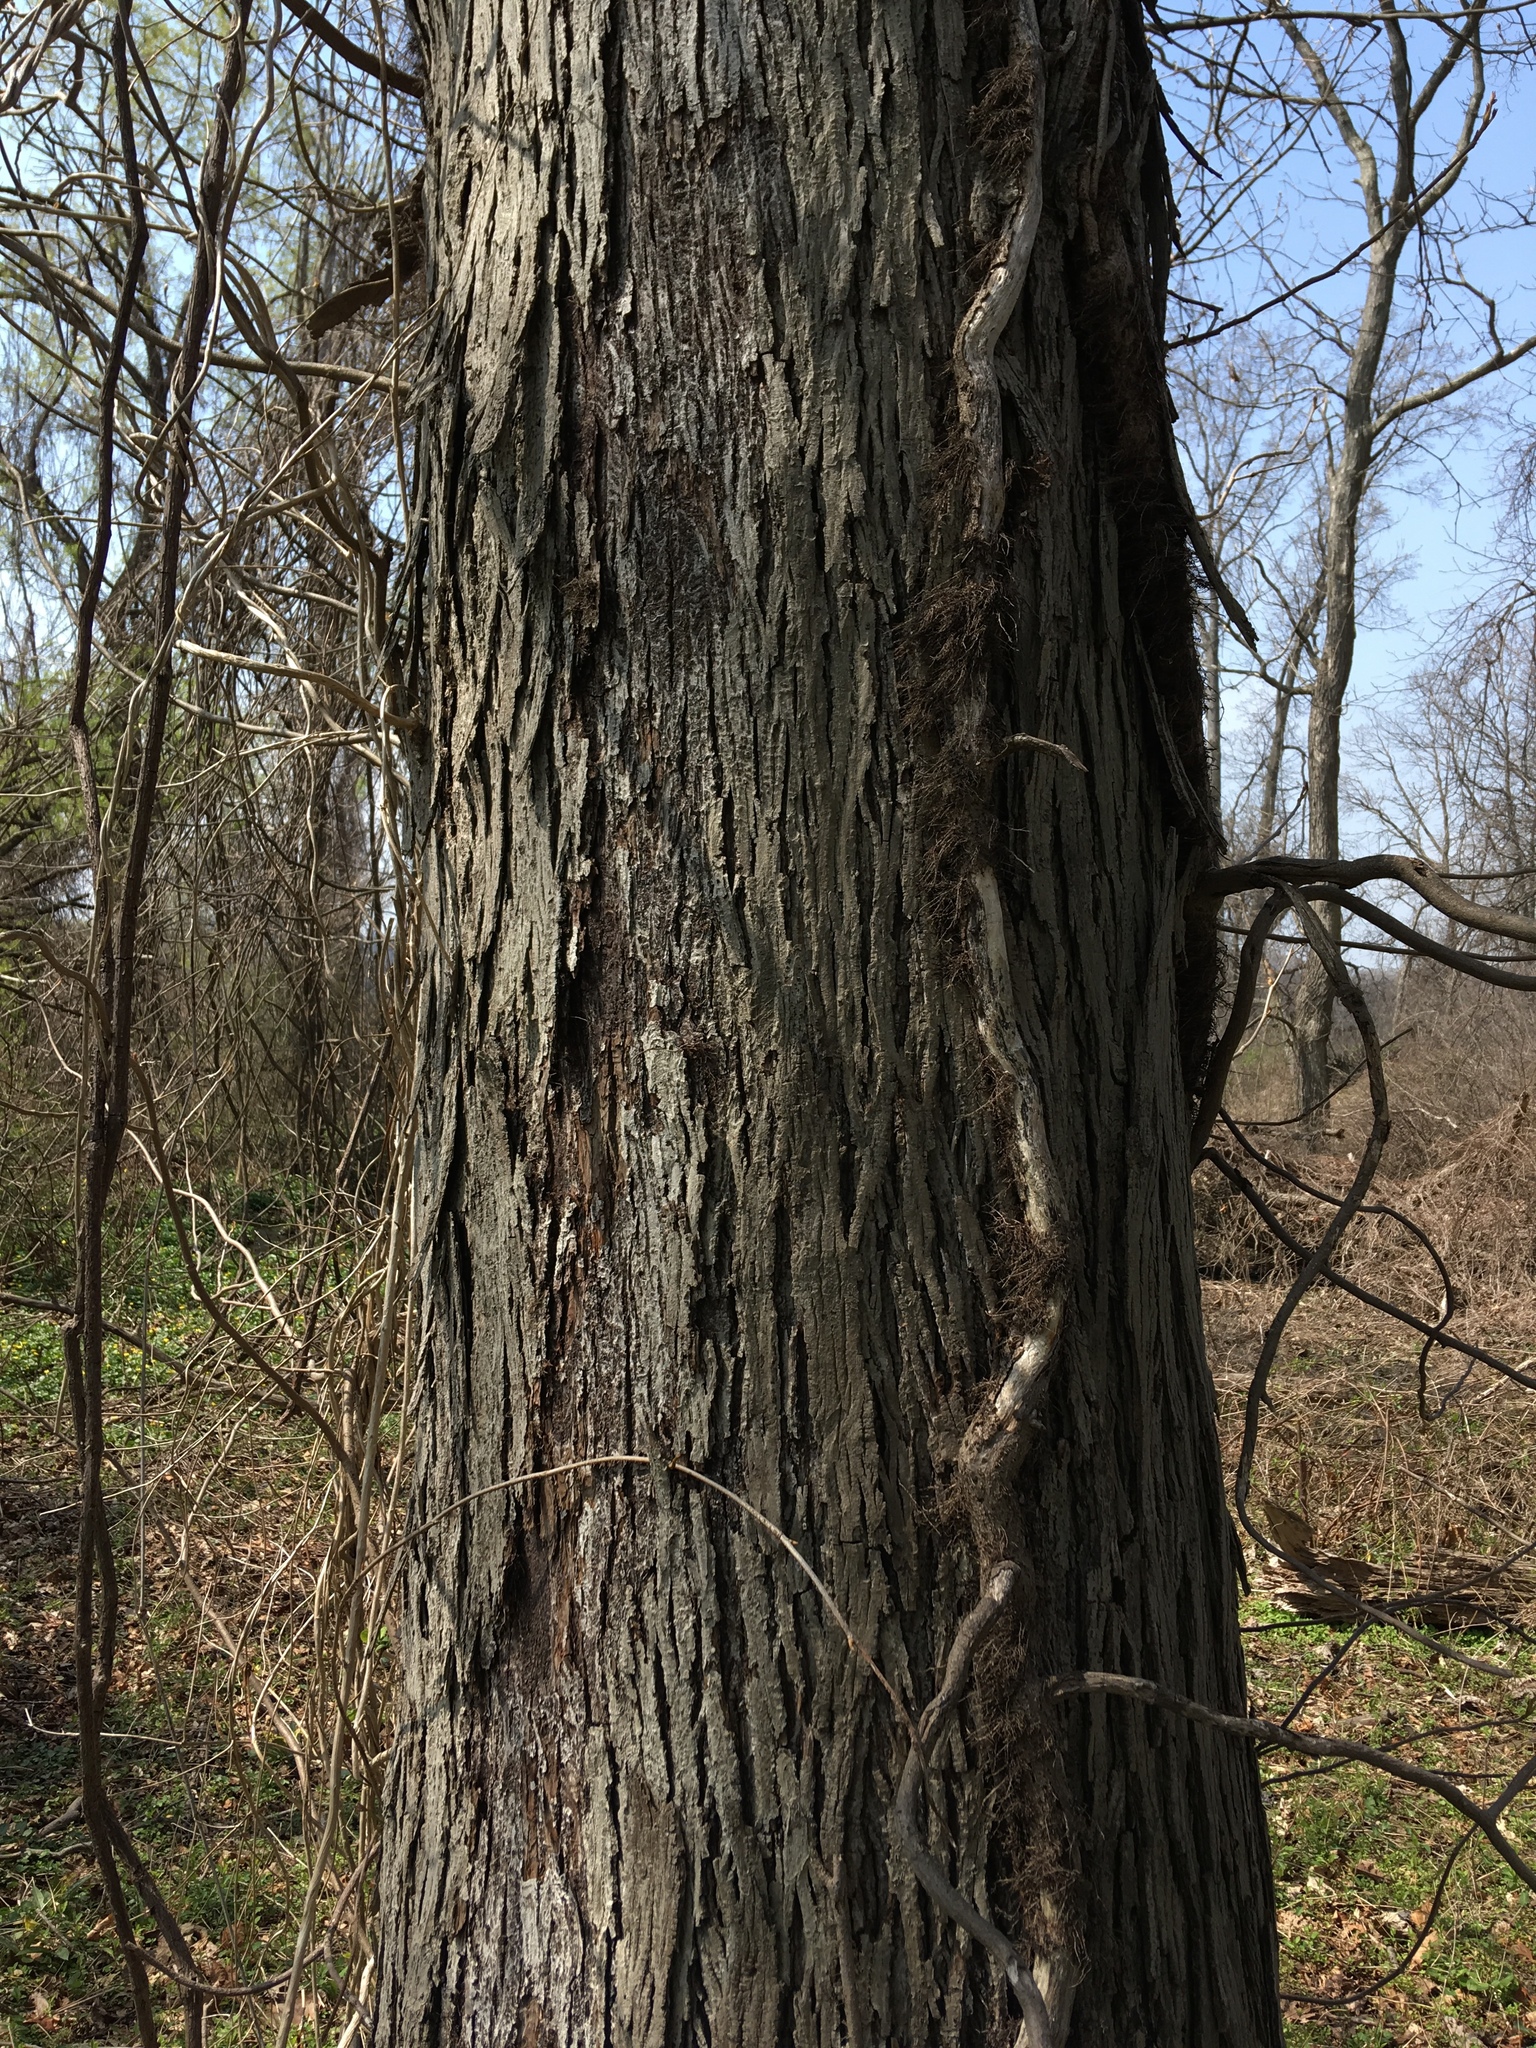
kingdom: Plantae
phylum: Tracheophyta
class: Magnoliopsida
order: Fagales
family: Juglandaceae
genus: Carya
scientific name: Carya ovata
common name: Shagbark hickory
